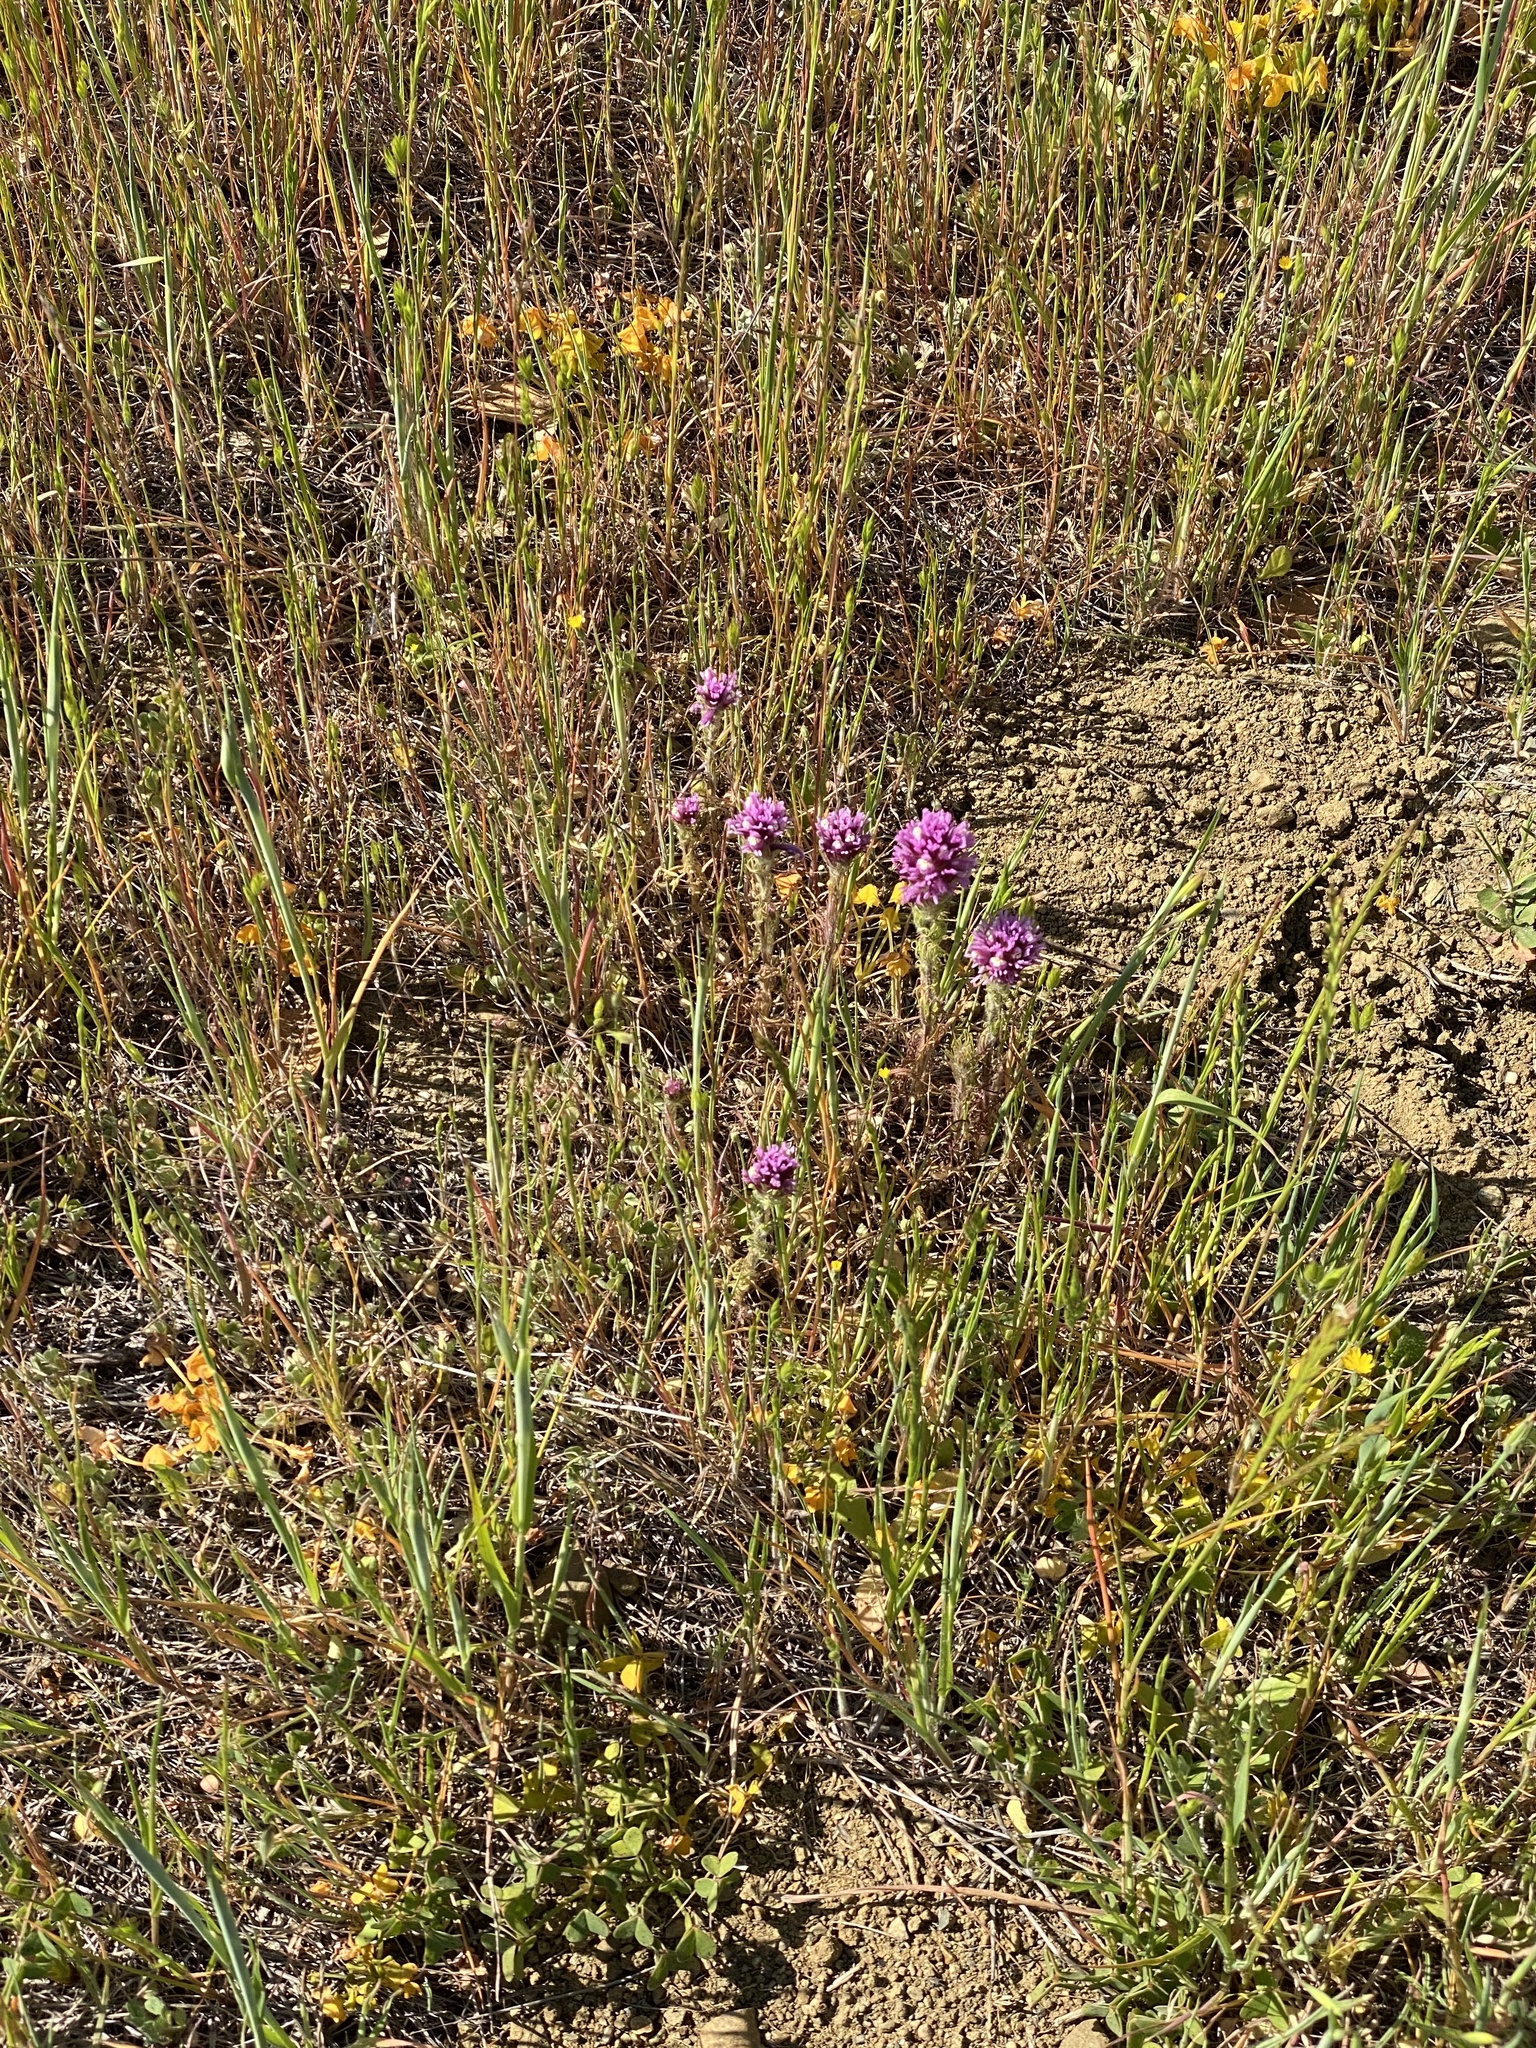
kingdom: Plantae
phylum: Tracheophyta
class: Magnoliopsida
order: Lamiales
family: Orobanchaceae
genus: Castilleja
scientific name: Castilleja exserta
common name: Purple owl-clover
